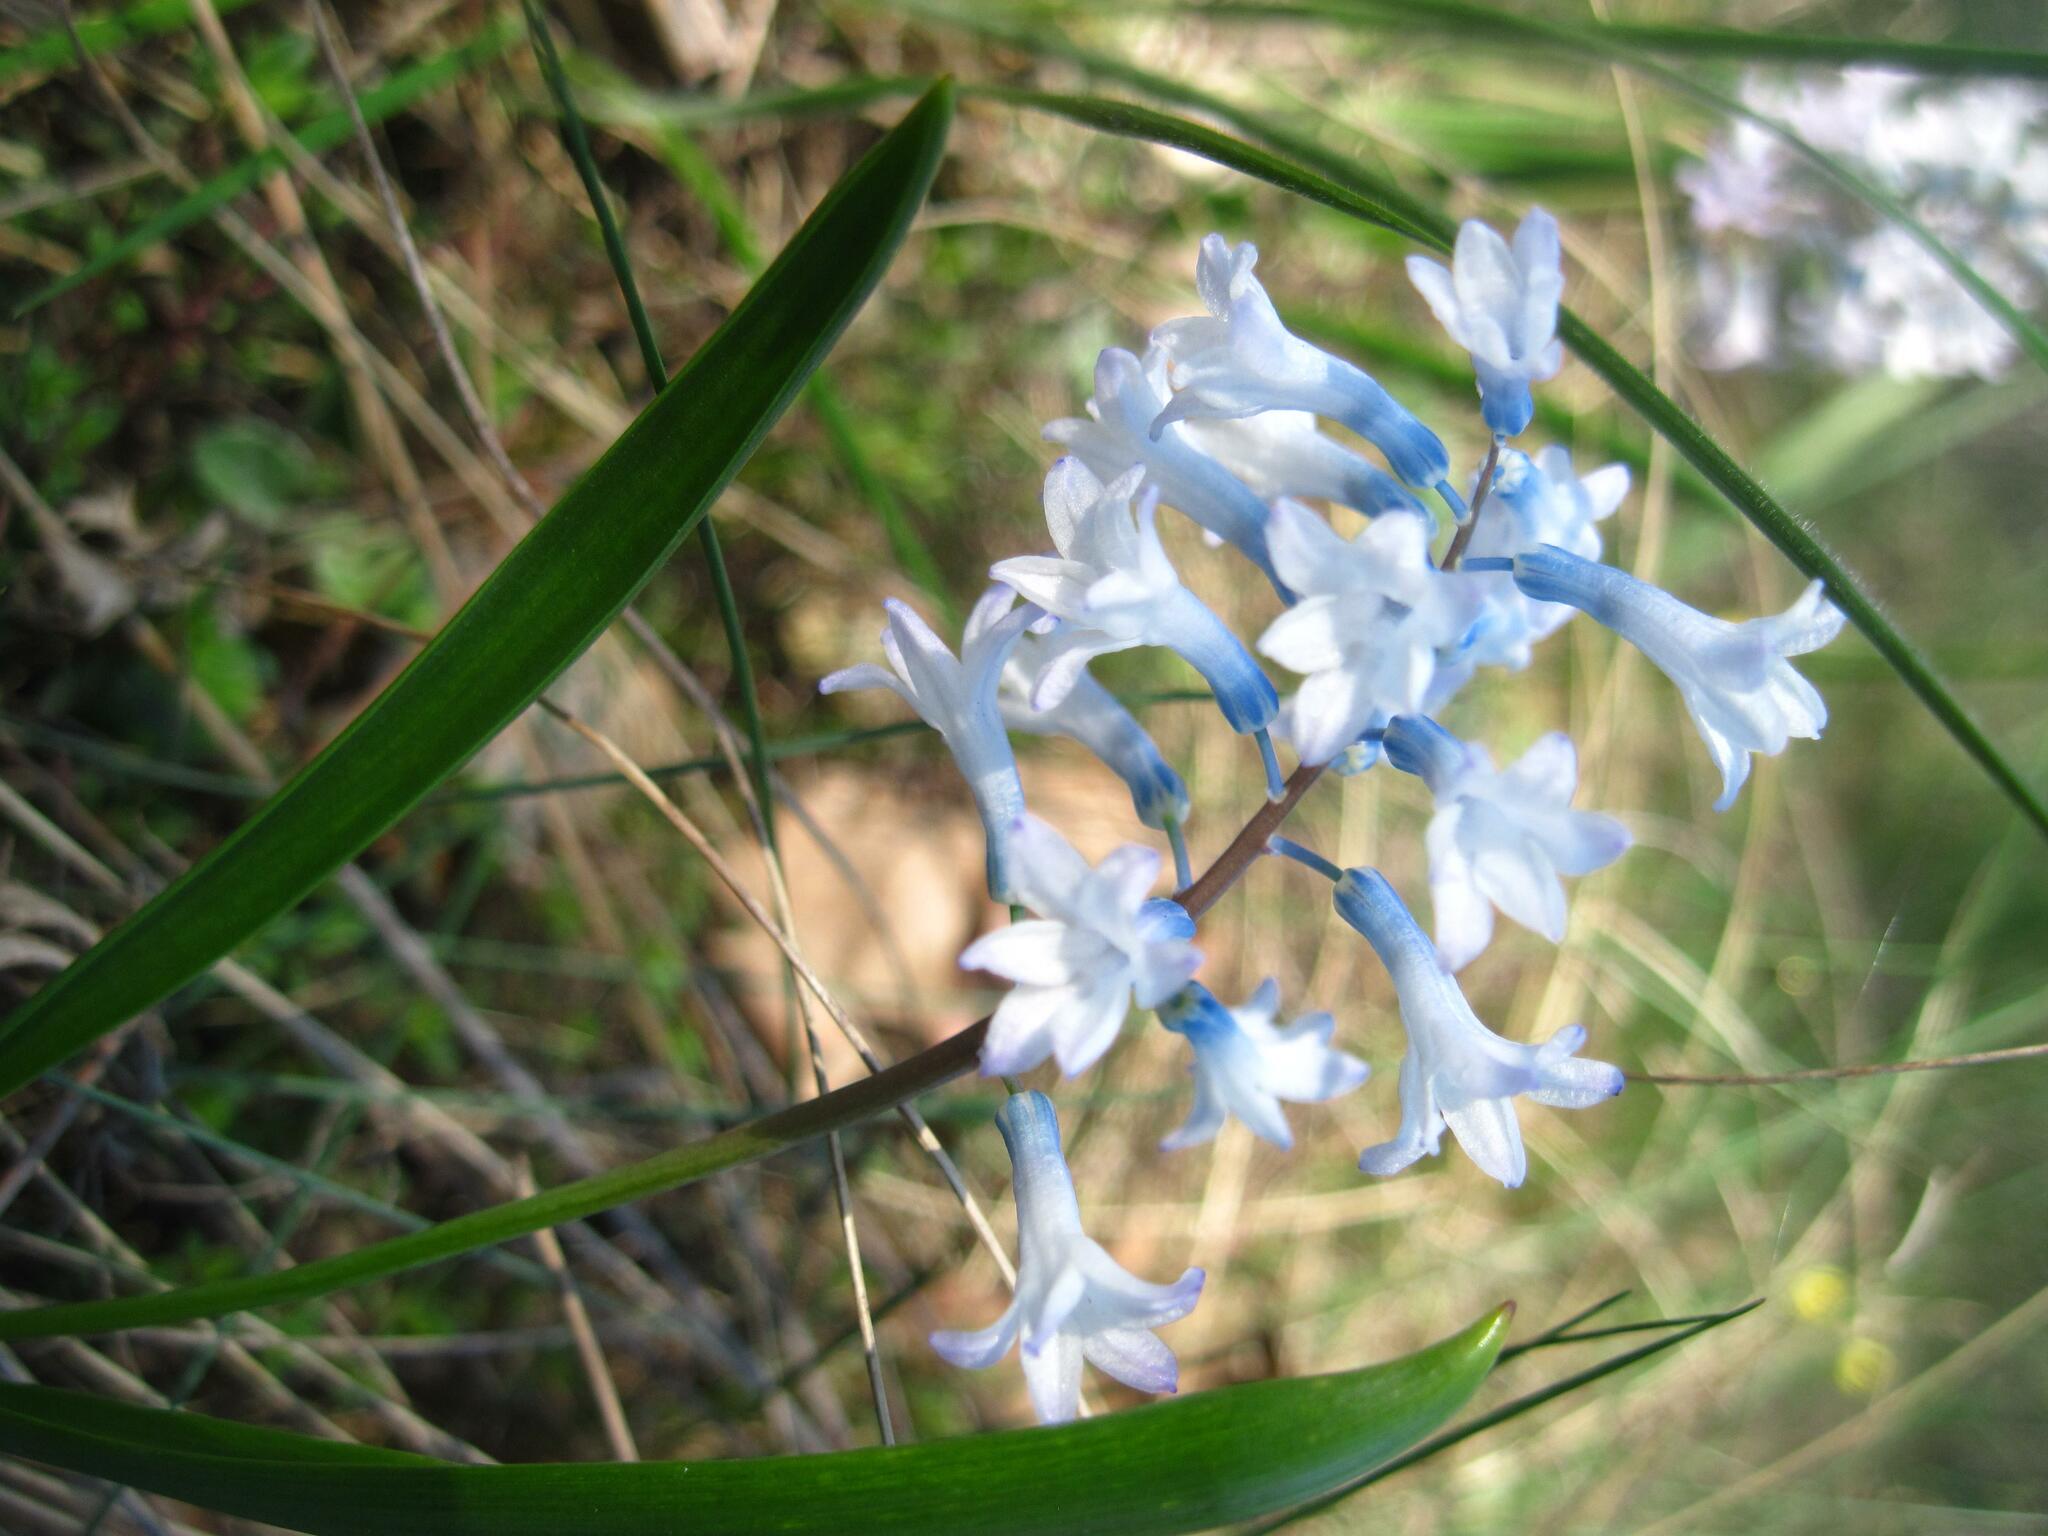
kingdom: Plantae
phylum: Tracheophyta
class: Liliopsida
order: Asparagales
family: Asparagaceae
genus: Hyacinthella
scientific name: Hyacinthella pallasiana
